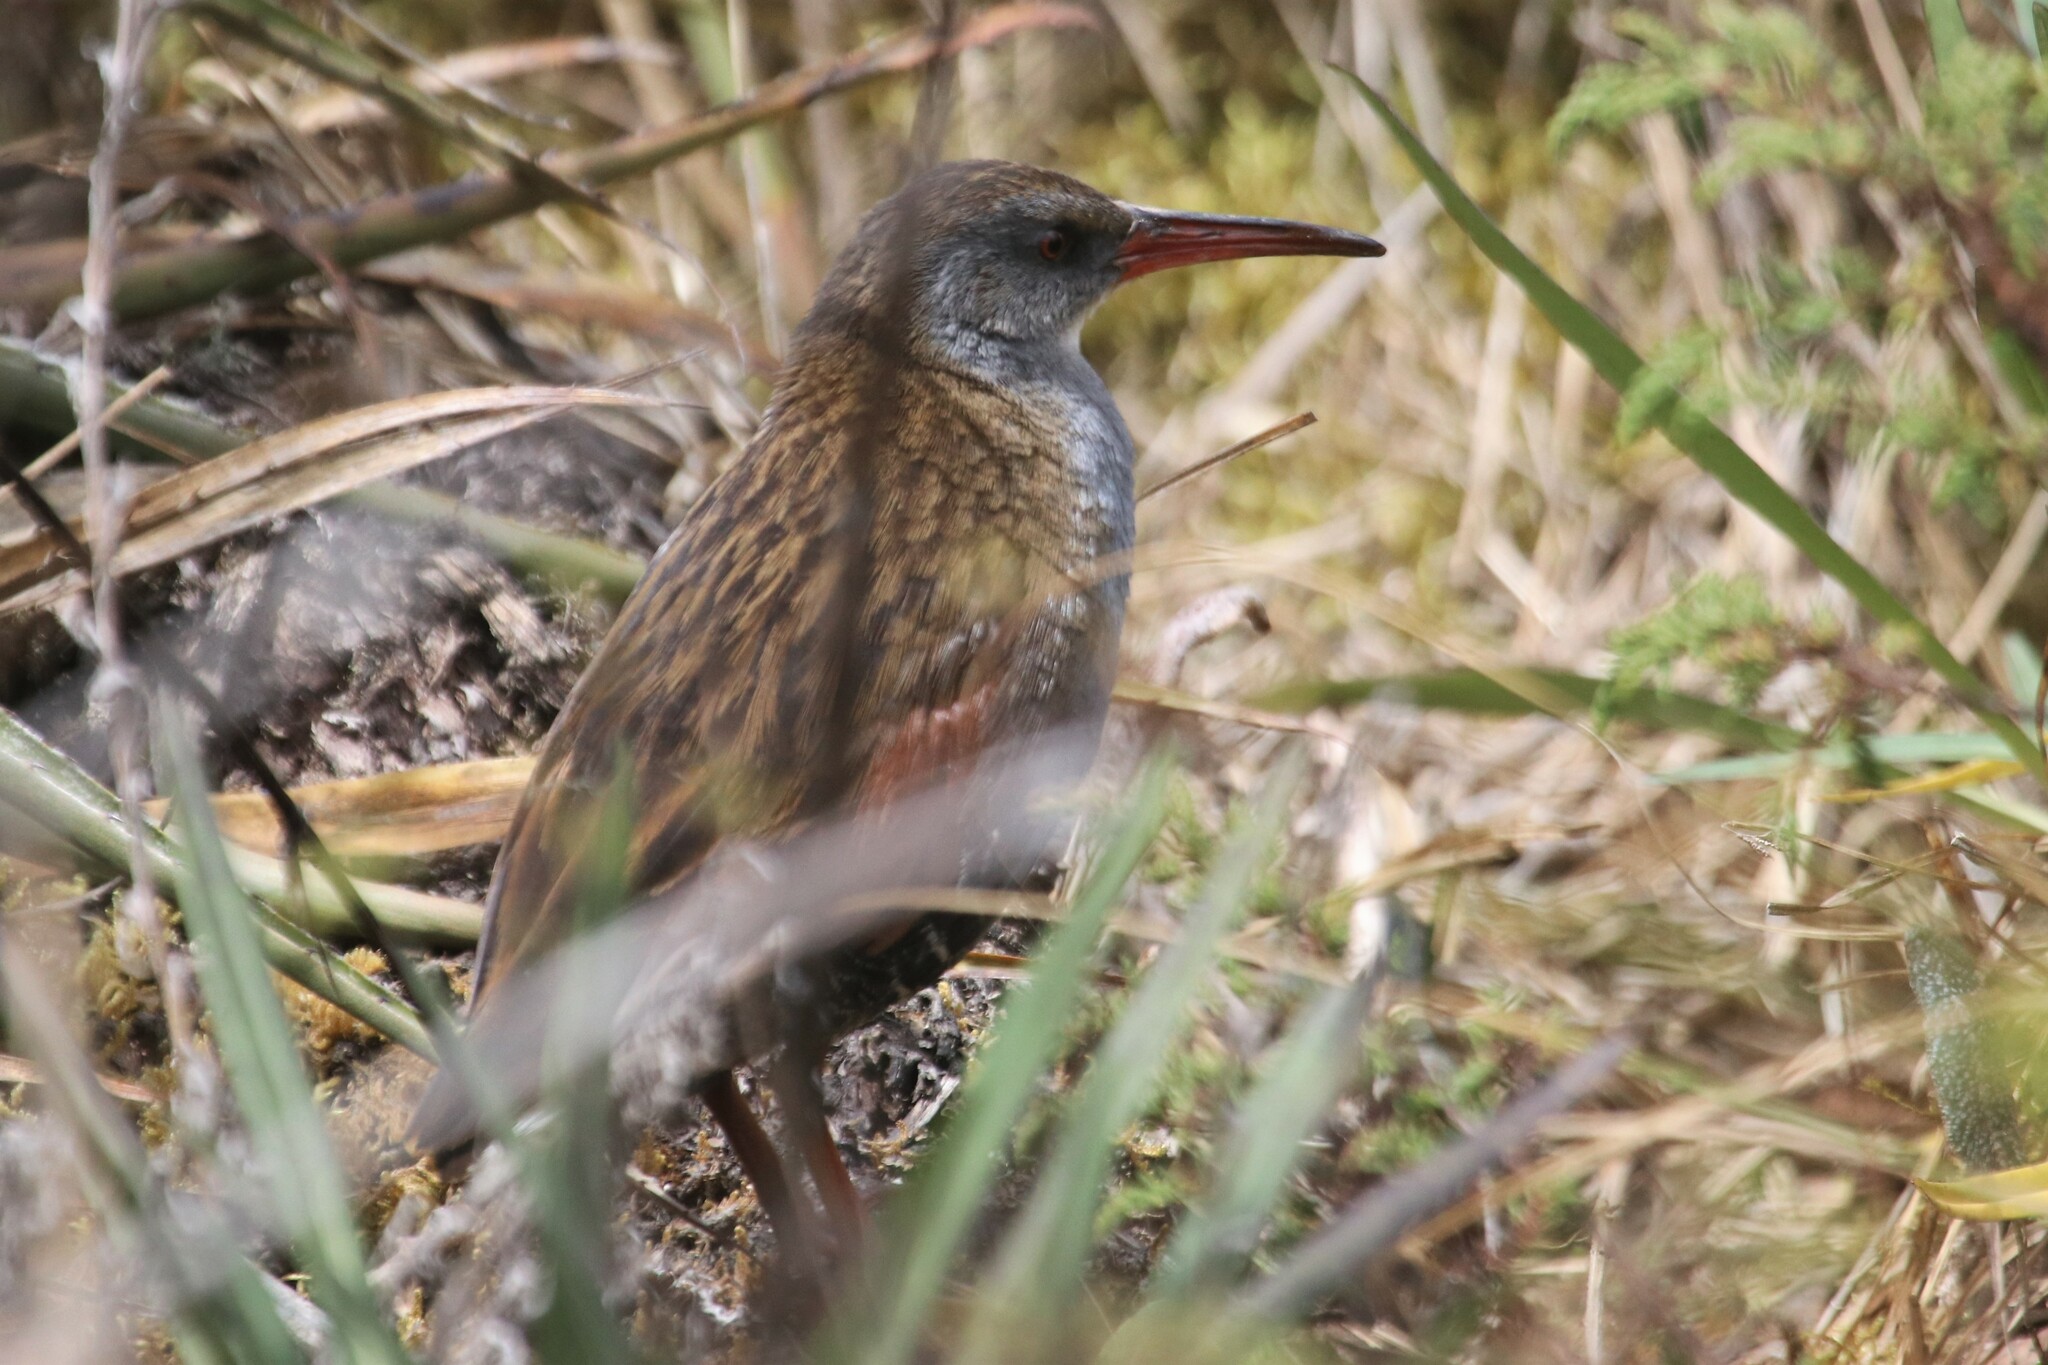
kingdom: Animalia
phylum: Chordata
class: Aves
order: Gruiformes
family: Rallidae
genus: Rallus
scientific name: Rallus semiplumbeus
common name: Bogota rail
